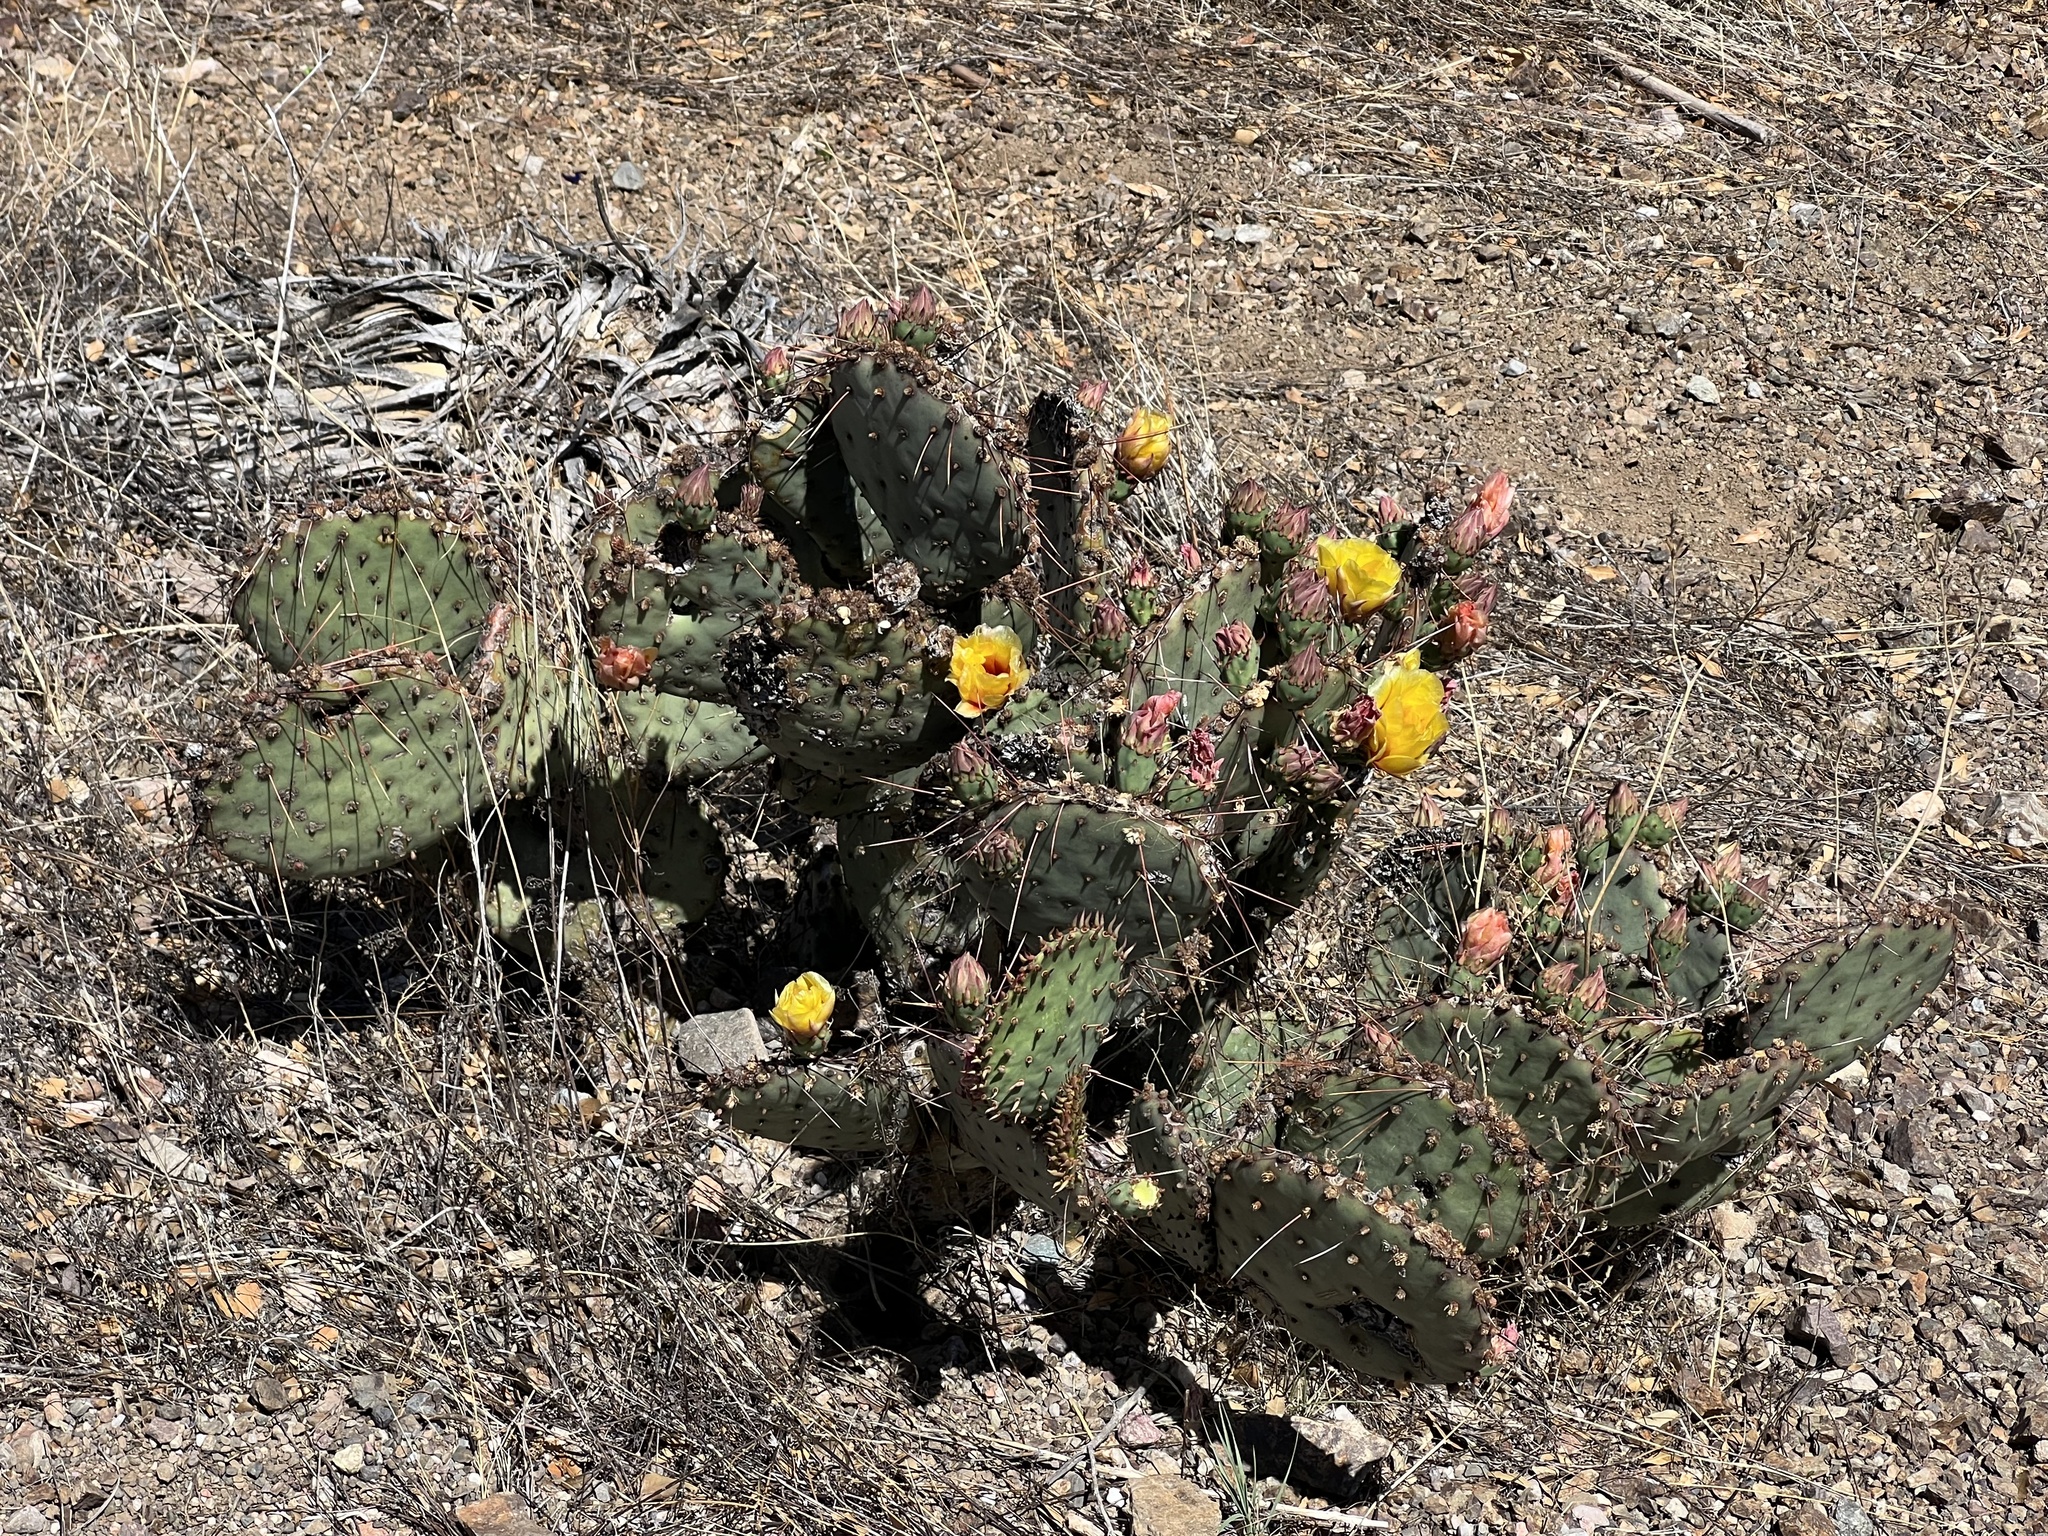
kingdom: Plantae
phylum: Tracheophyta
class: Magnoliopsida
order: Caryophyllales
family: Cactaceae
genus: Opuntia
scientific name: Opuntia phaeacantha
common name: New mexico prickly-pear
